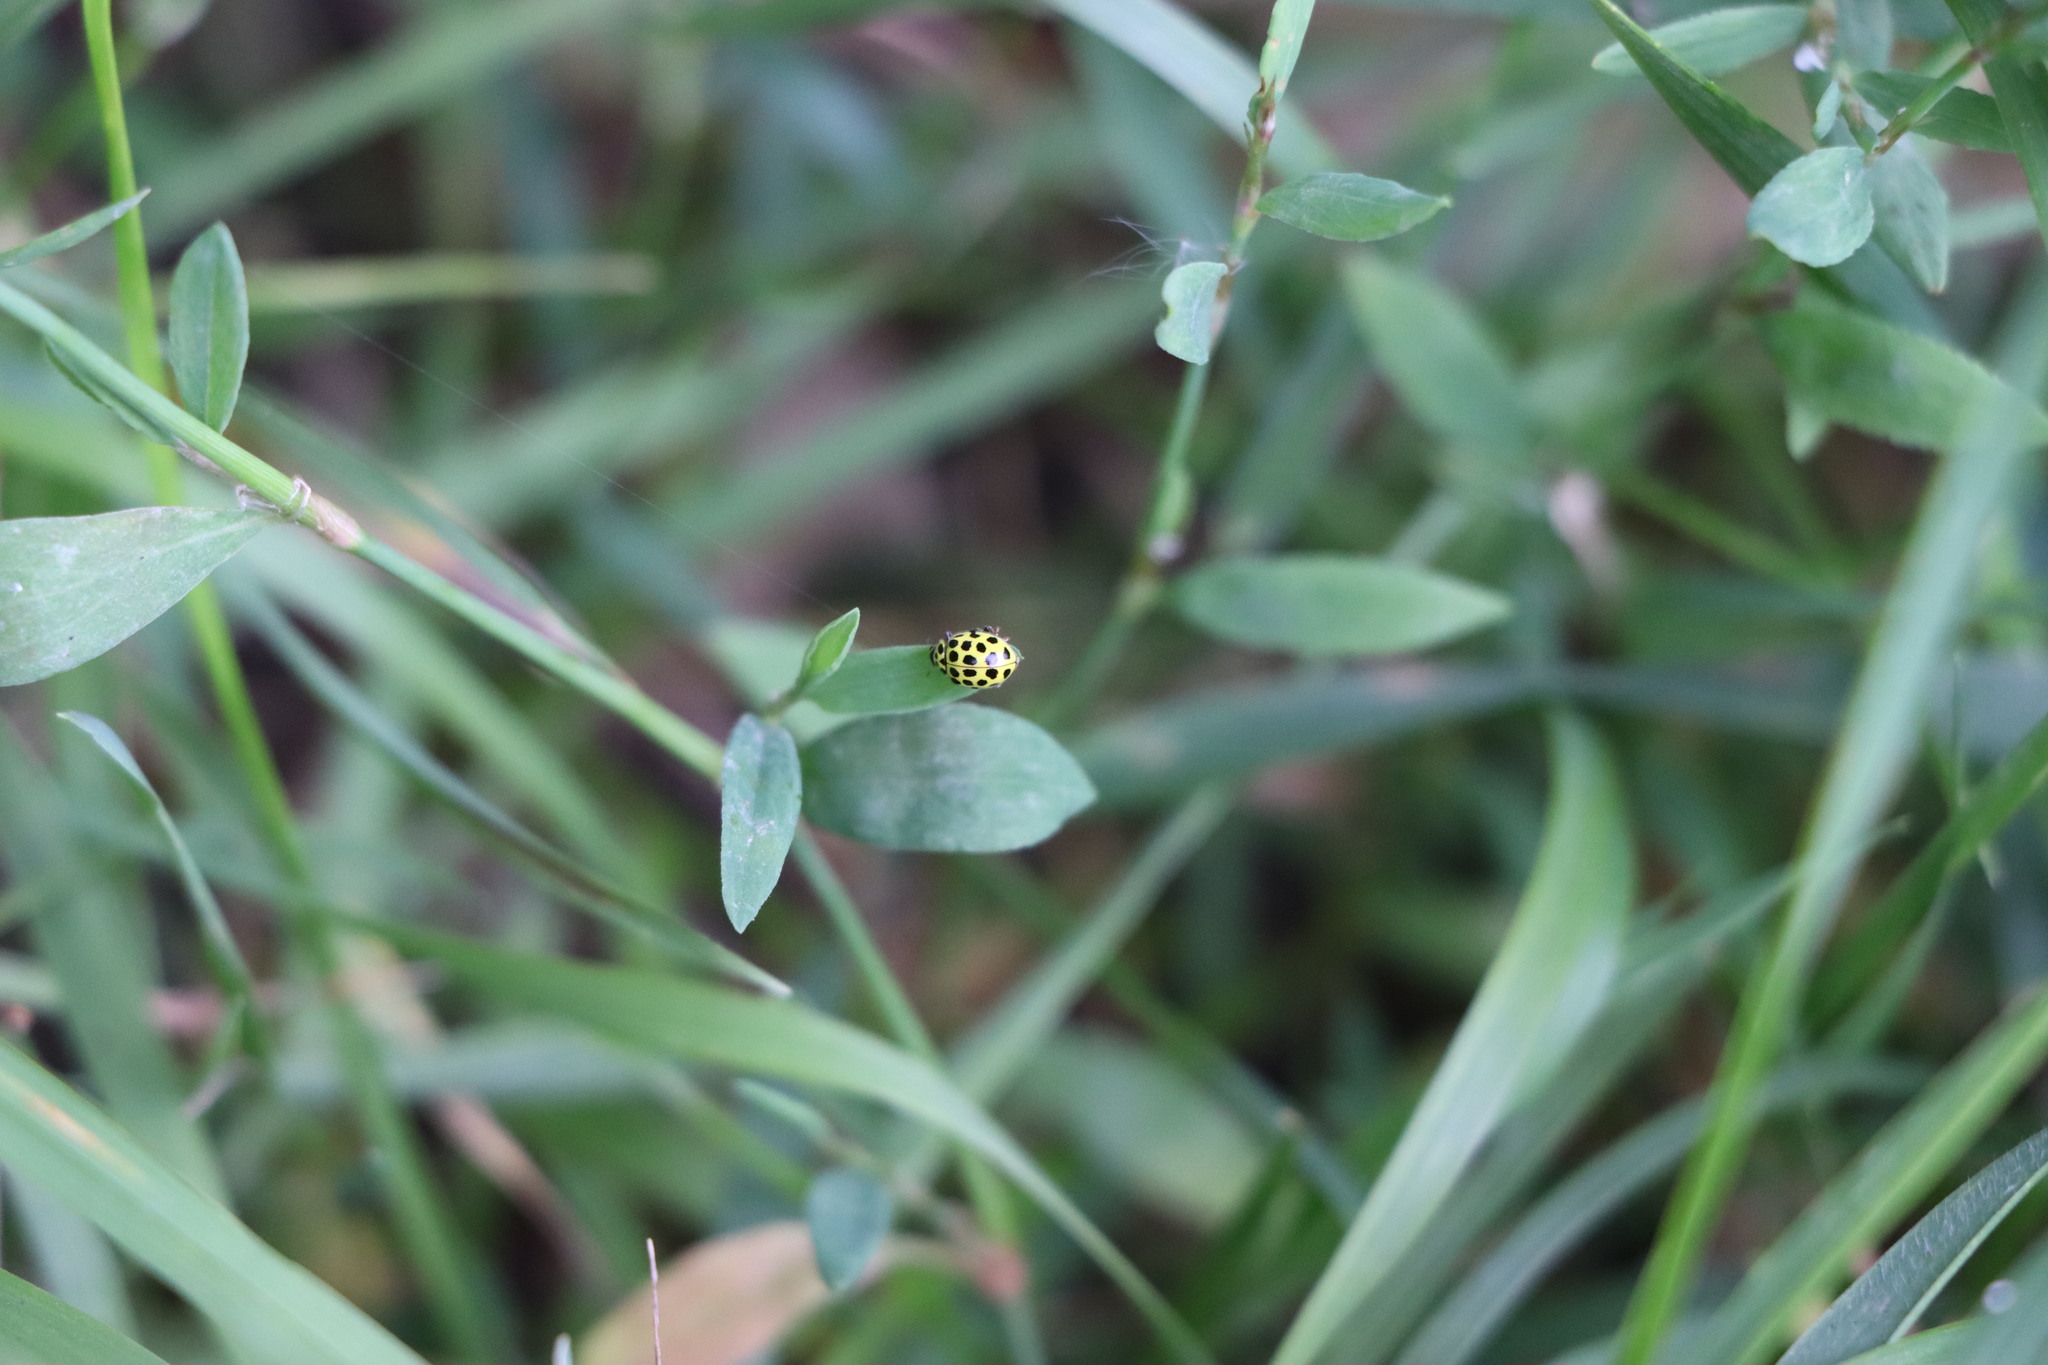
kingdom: Animalia
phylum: Arthropoda
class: Insecta
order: Coleoptera
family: Coccinellidae
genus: Psyllobora
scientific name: Psyllobora vigintiduopunctata
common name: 22-spot ladybird
